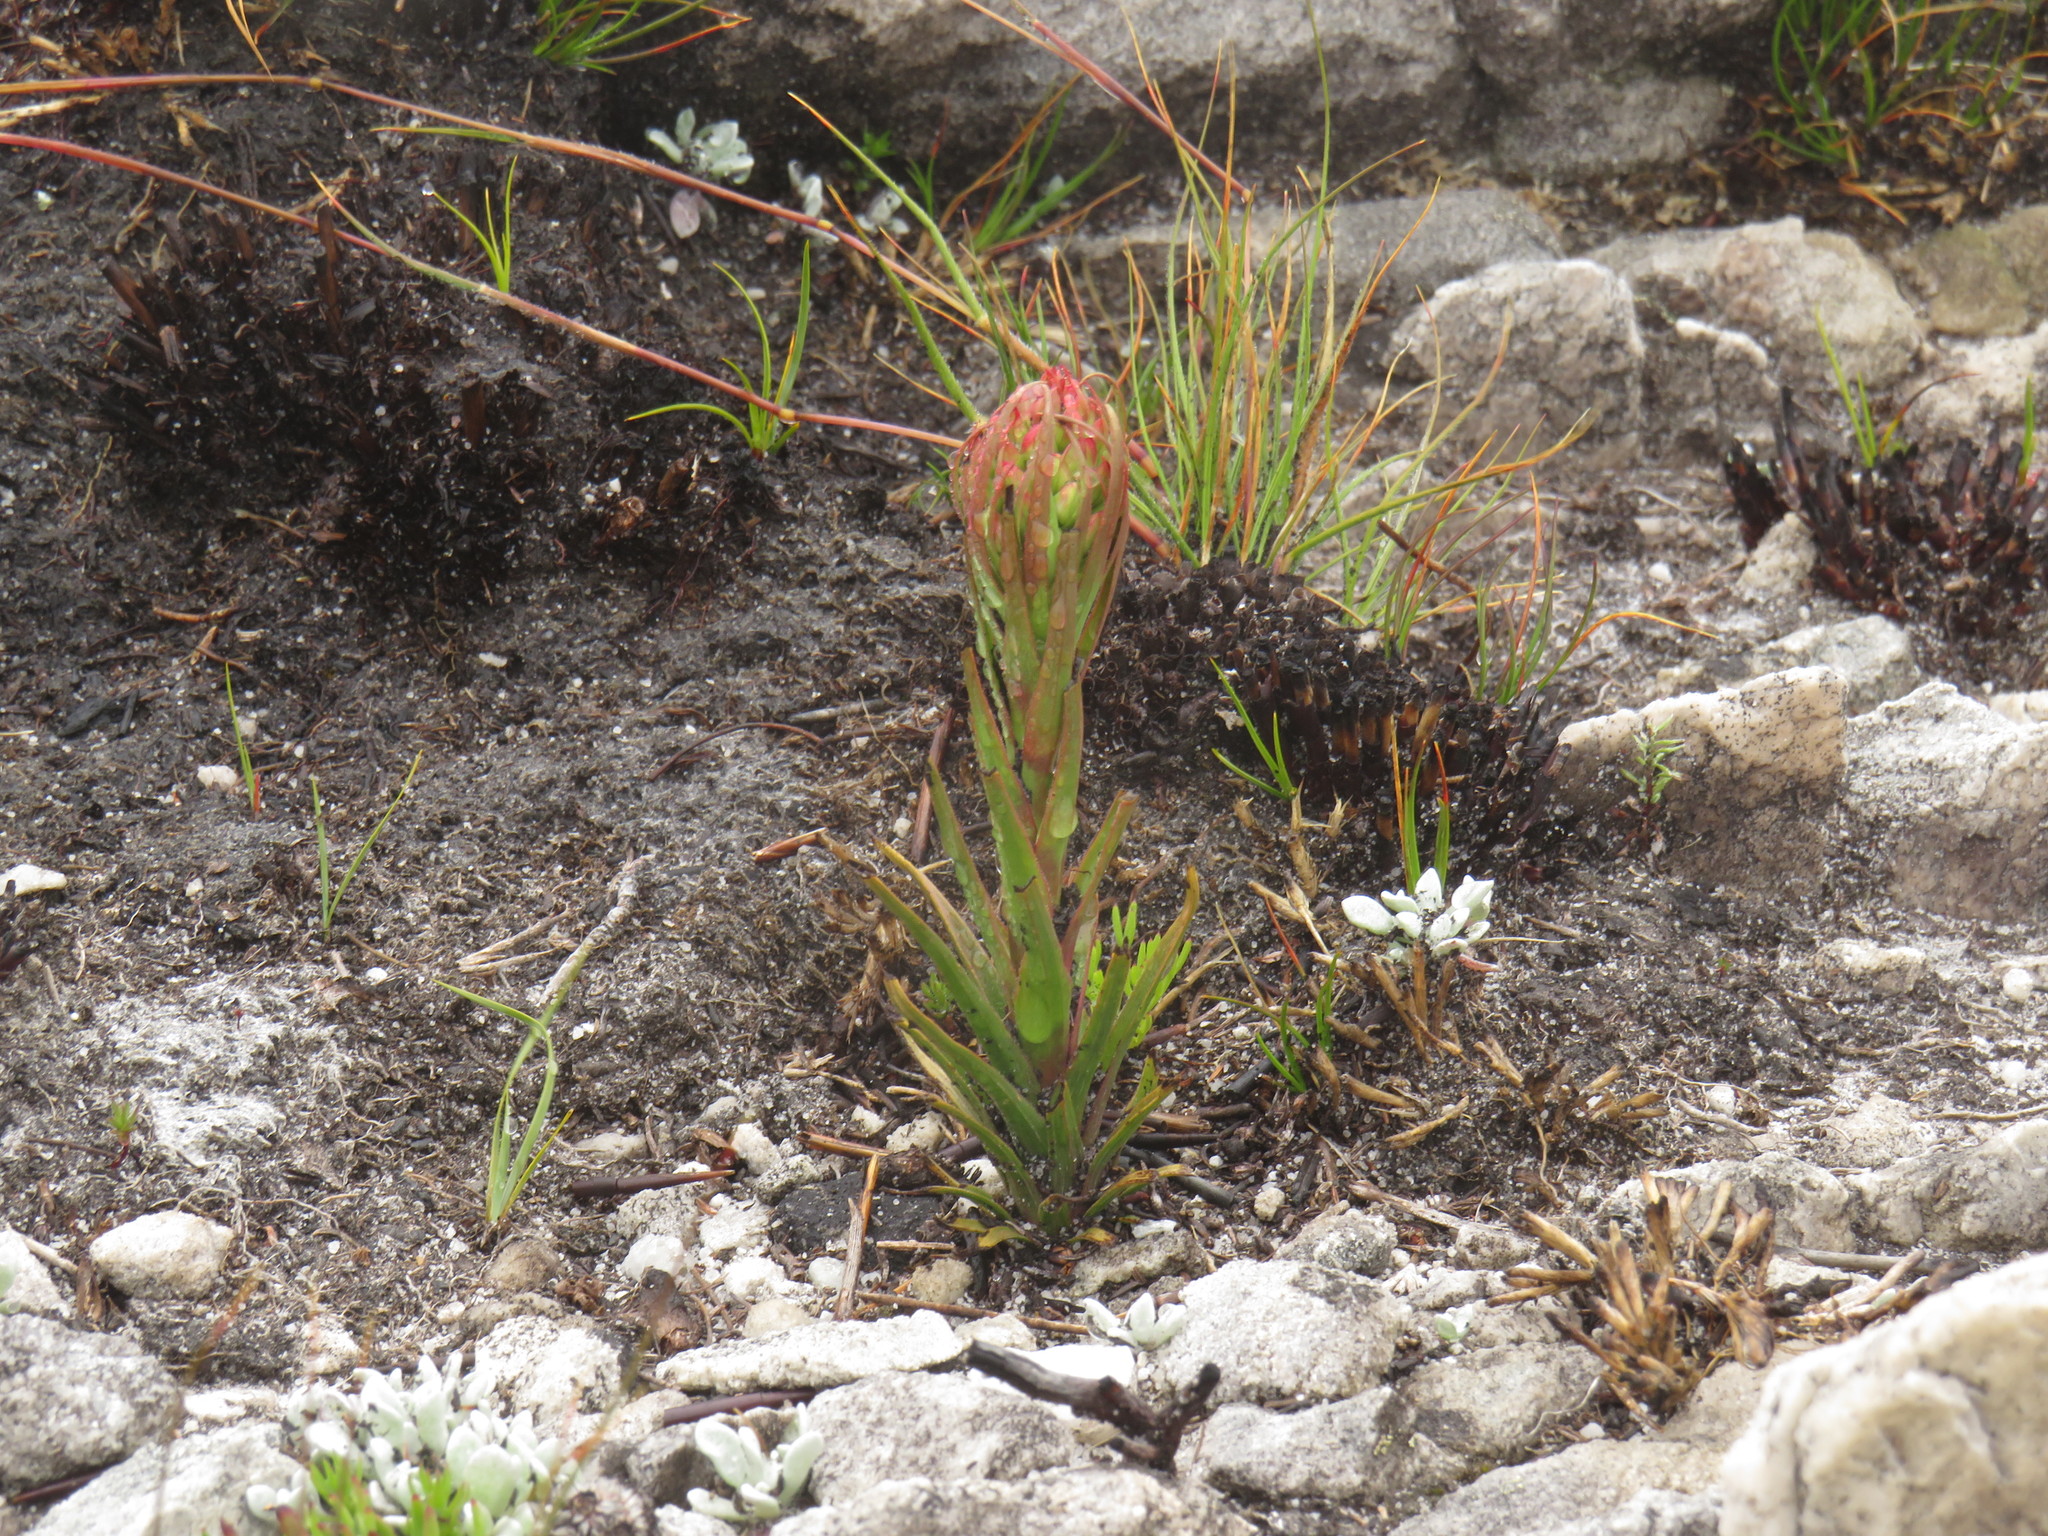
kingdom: Plantae
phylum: Tracheophyta
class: Liliopsida
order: Asparagales
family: Orchidaceae
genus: Ceratandra
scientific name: Ceratandra globosa
